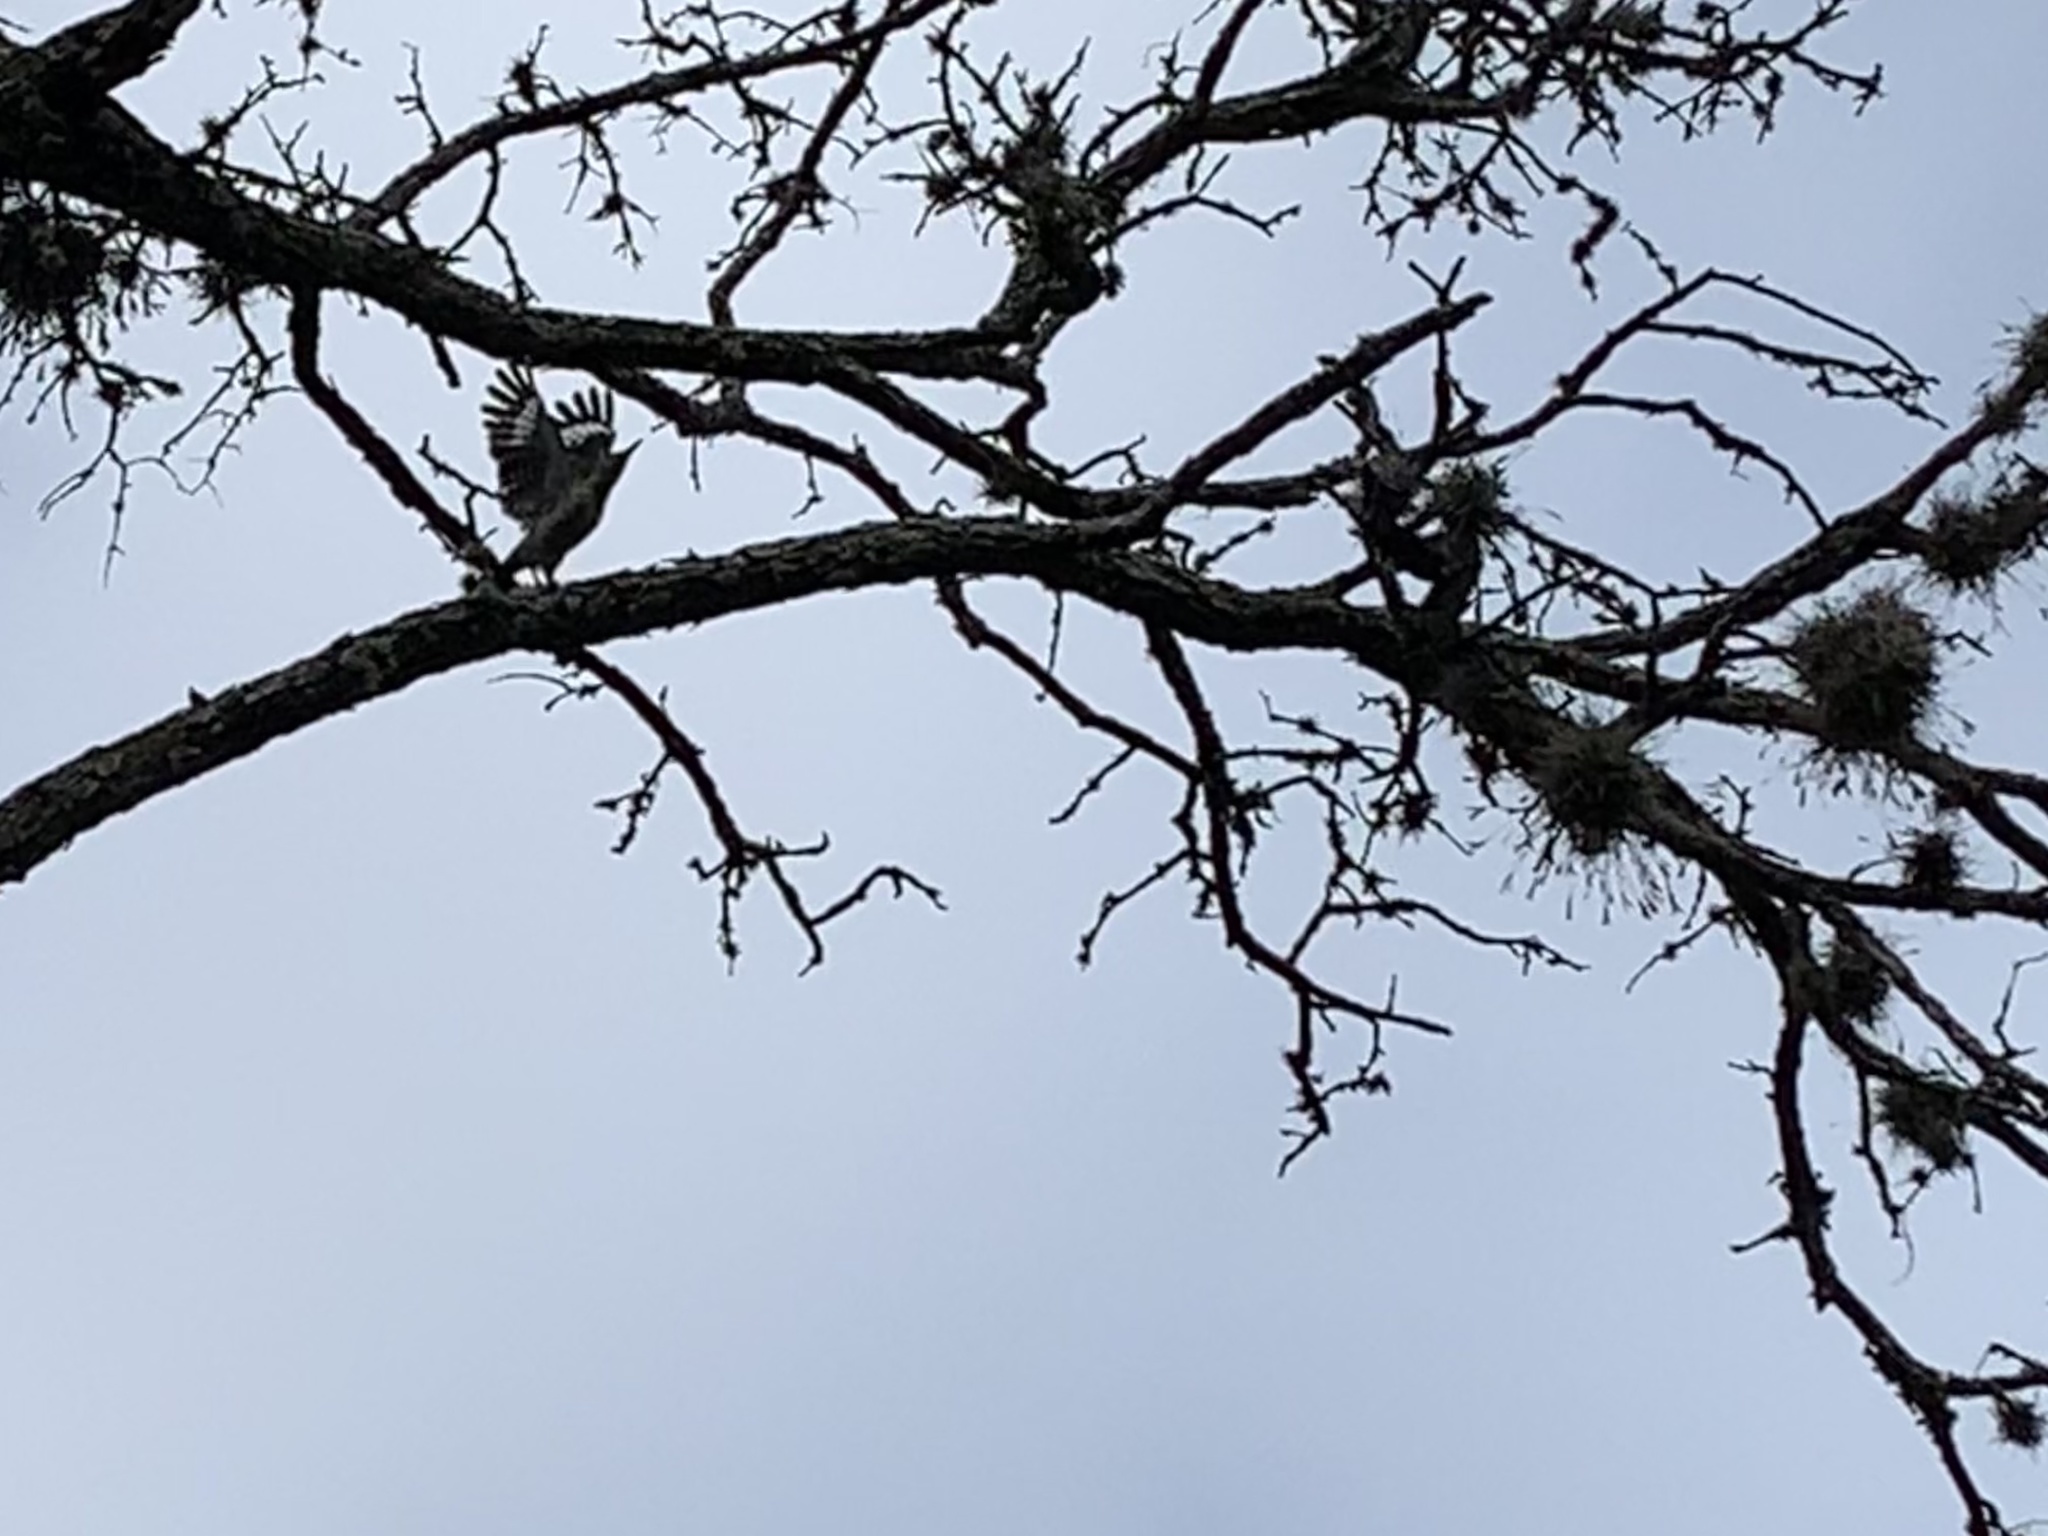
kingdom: Animalia
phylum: Chordata
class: Aves
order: Piciformes
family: Picidae
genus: Melanerpes
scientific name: Melanerpes aurifrons
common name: Golden-fronted woodpecker
